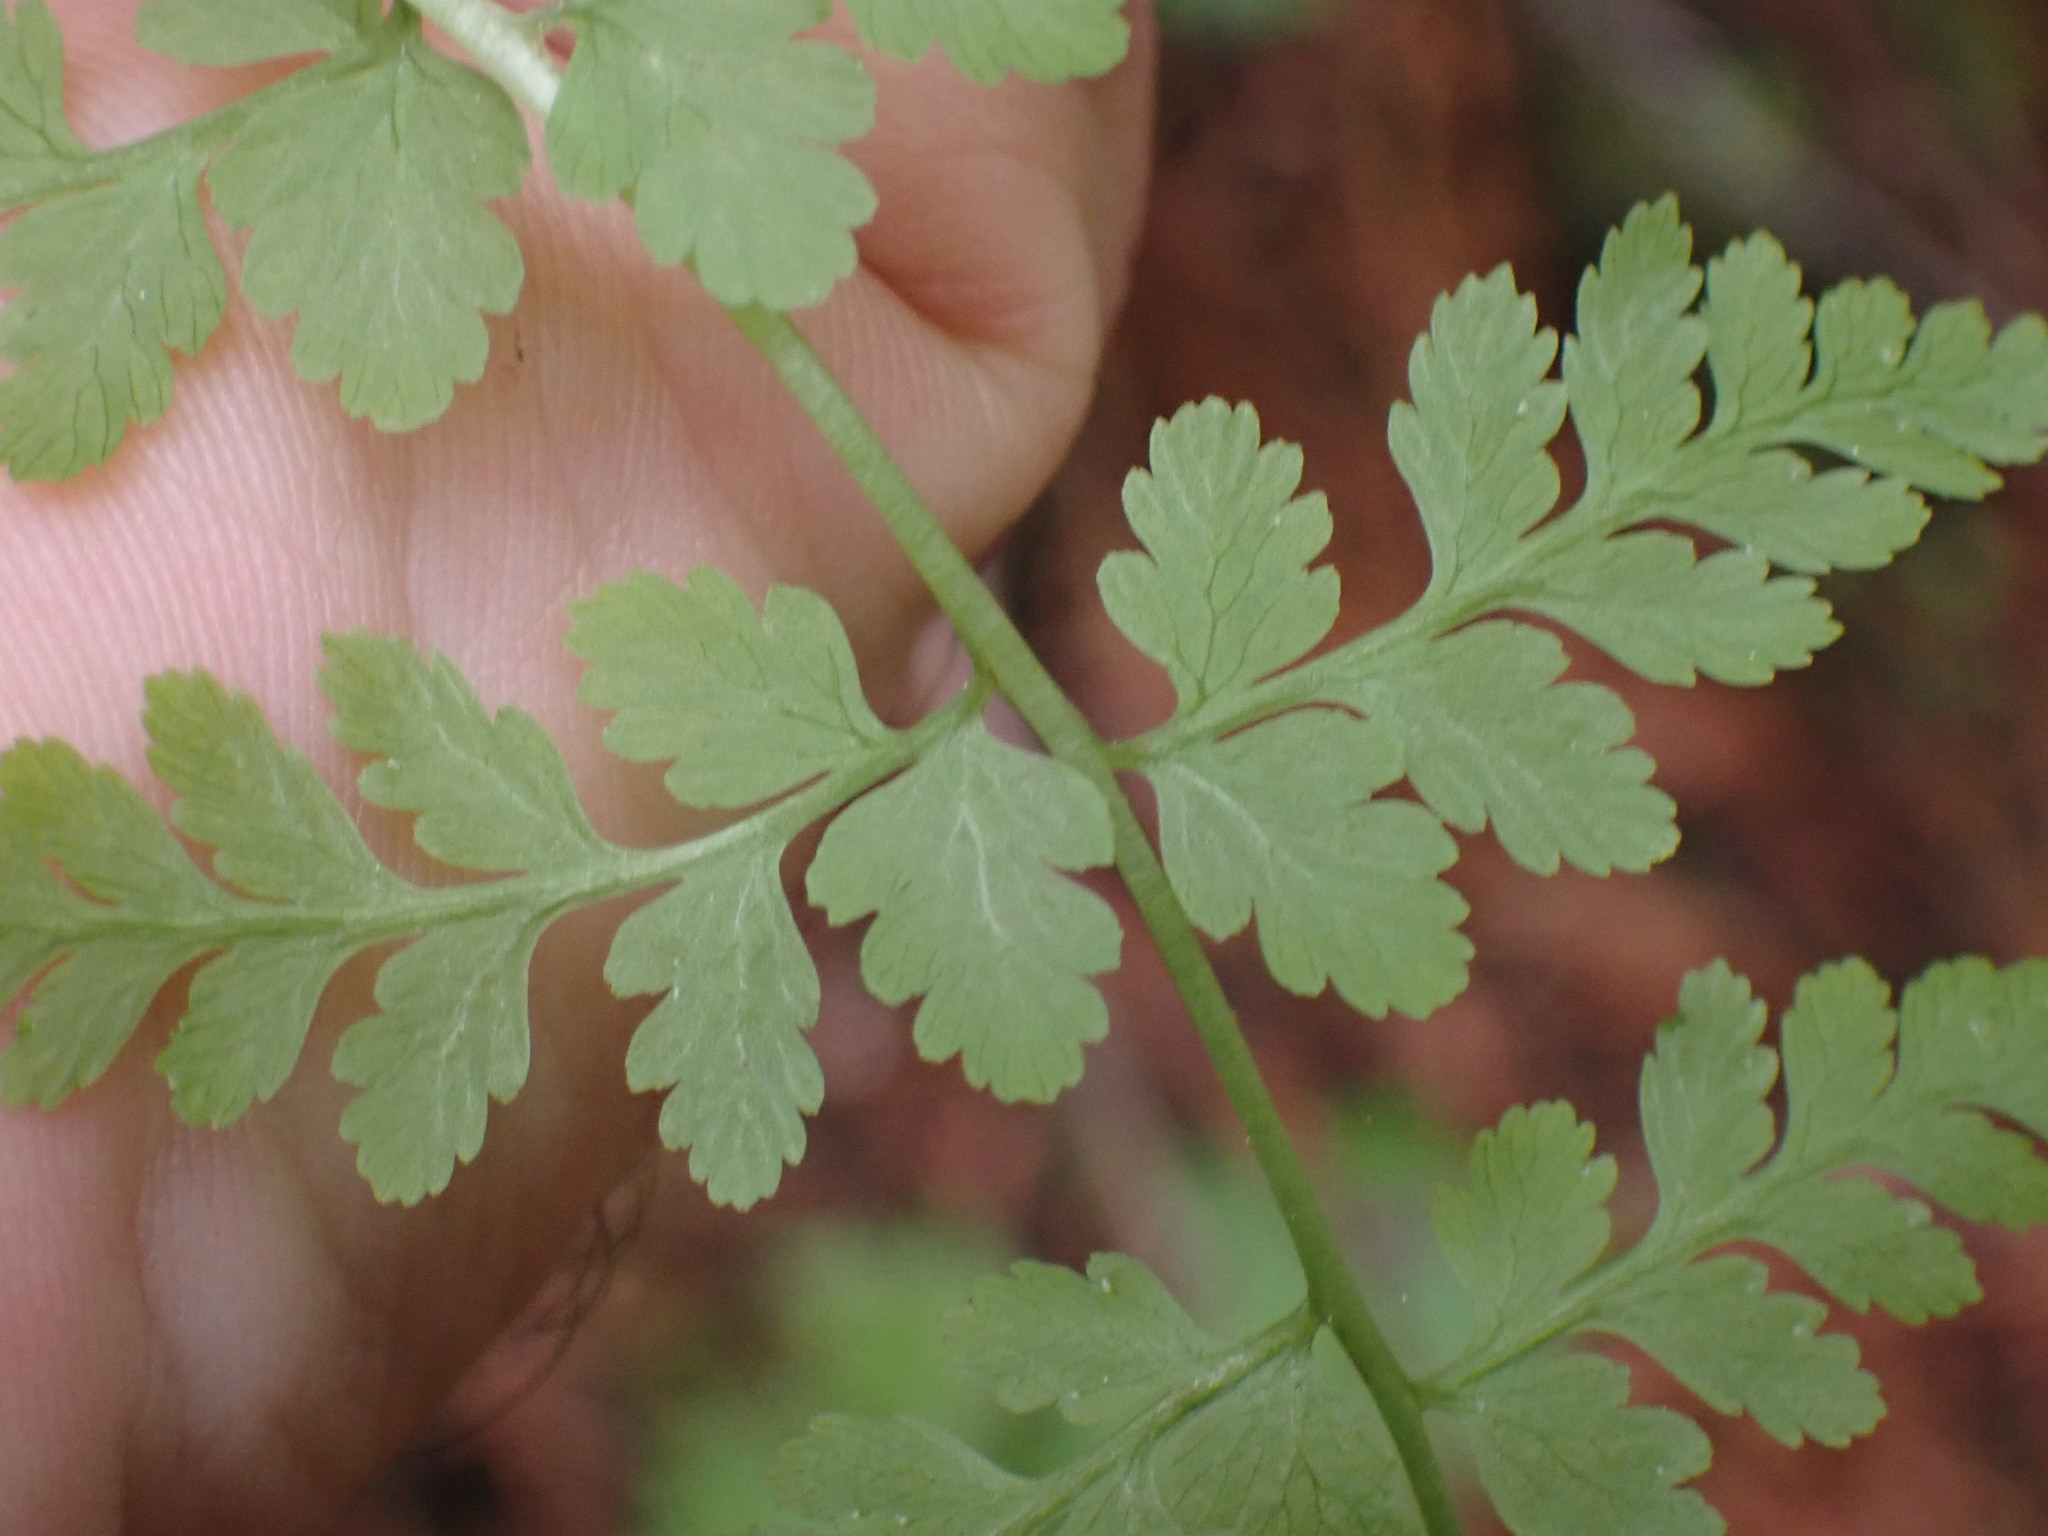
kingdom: Plantae
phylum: Tracheophyta
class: Polypodiopsida
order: Polypodiales
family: Cystopteridaceae
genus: Cystopteris
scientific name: Cystopteris fragilis
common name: Brittle bladder fern
